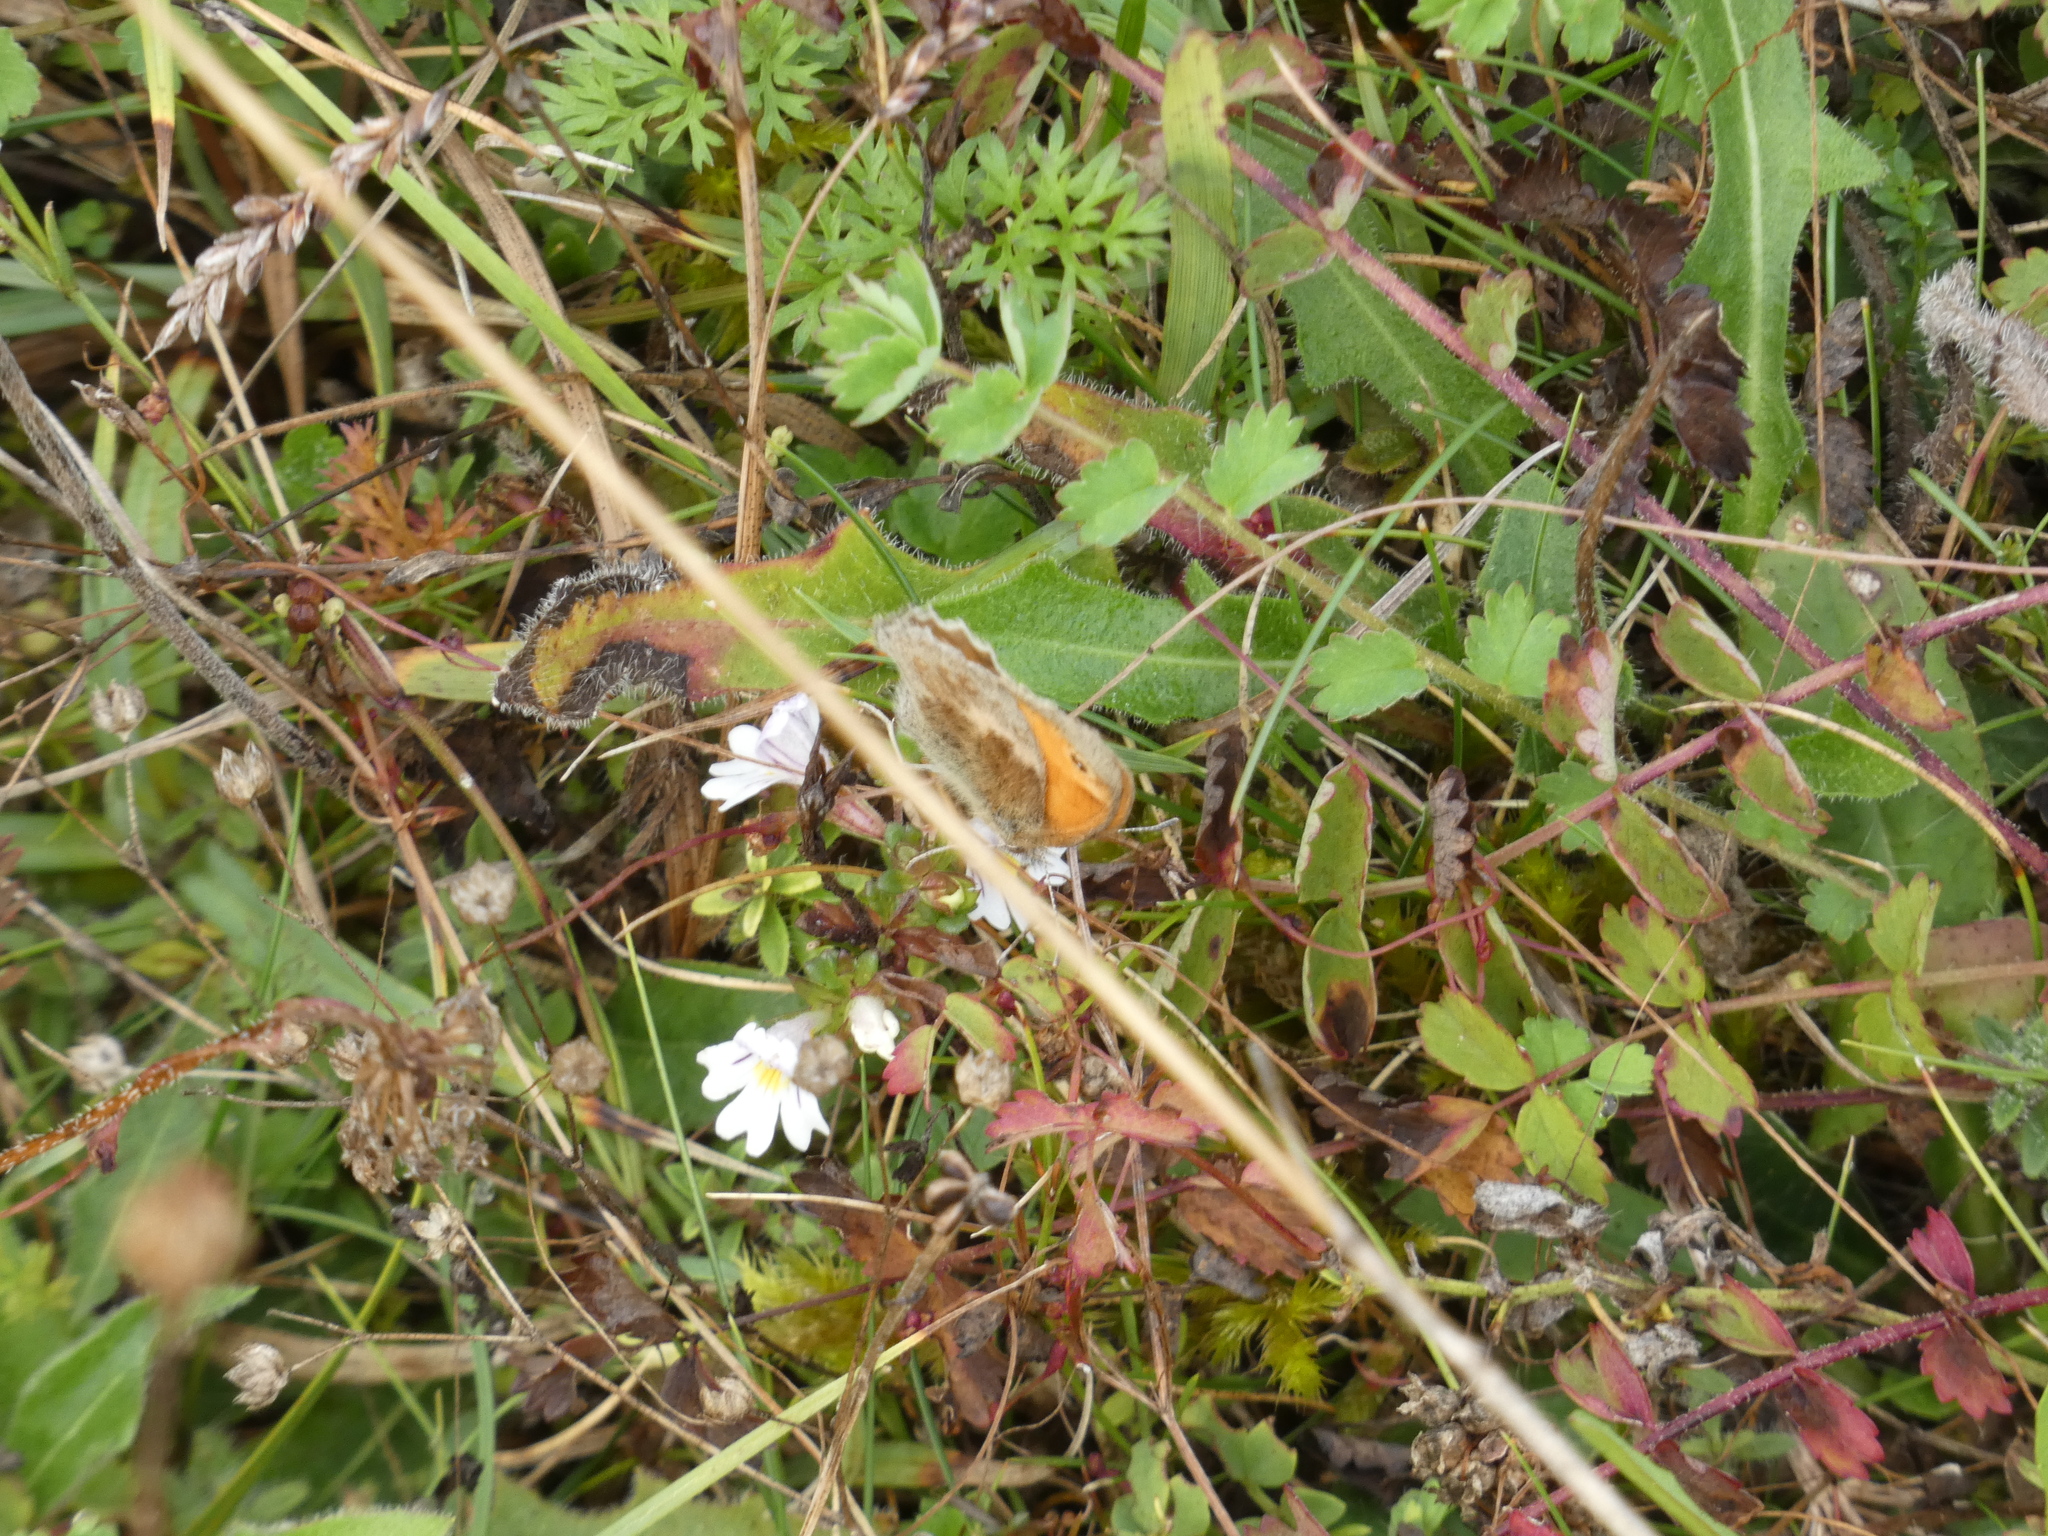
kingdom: Animalia
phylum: Arthropoda
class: Insecta
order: Lepidoptera
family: Nymphalidae
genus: Coenonympha
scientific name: Coenonympha pamphilus
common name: Small heath
